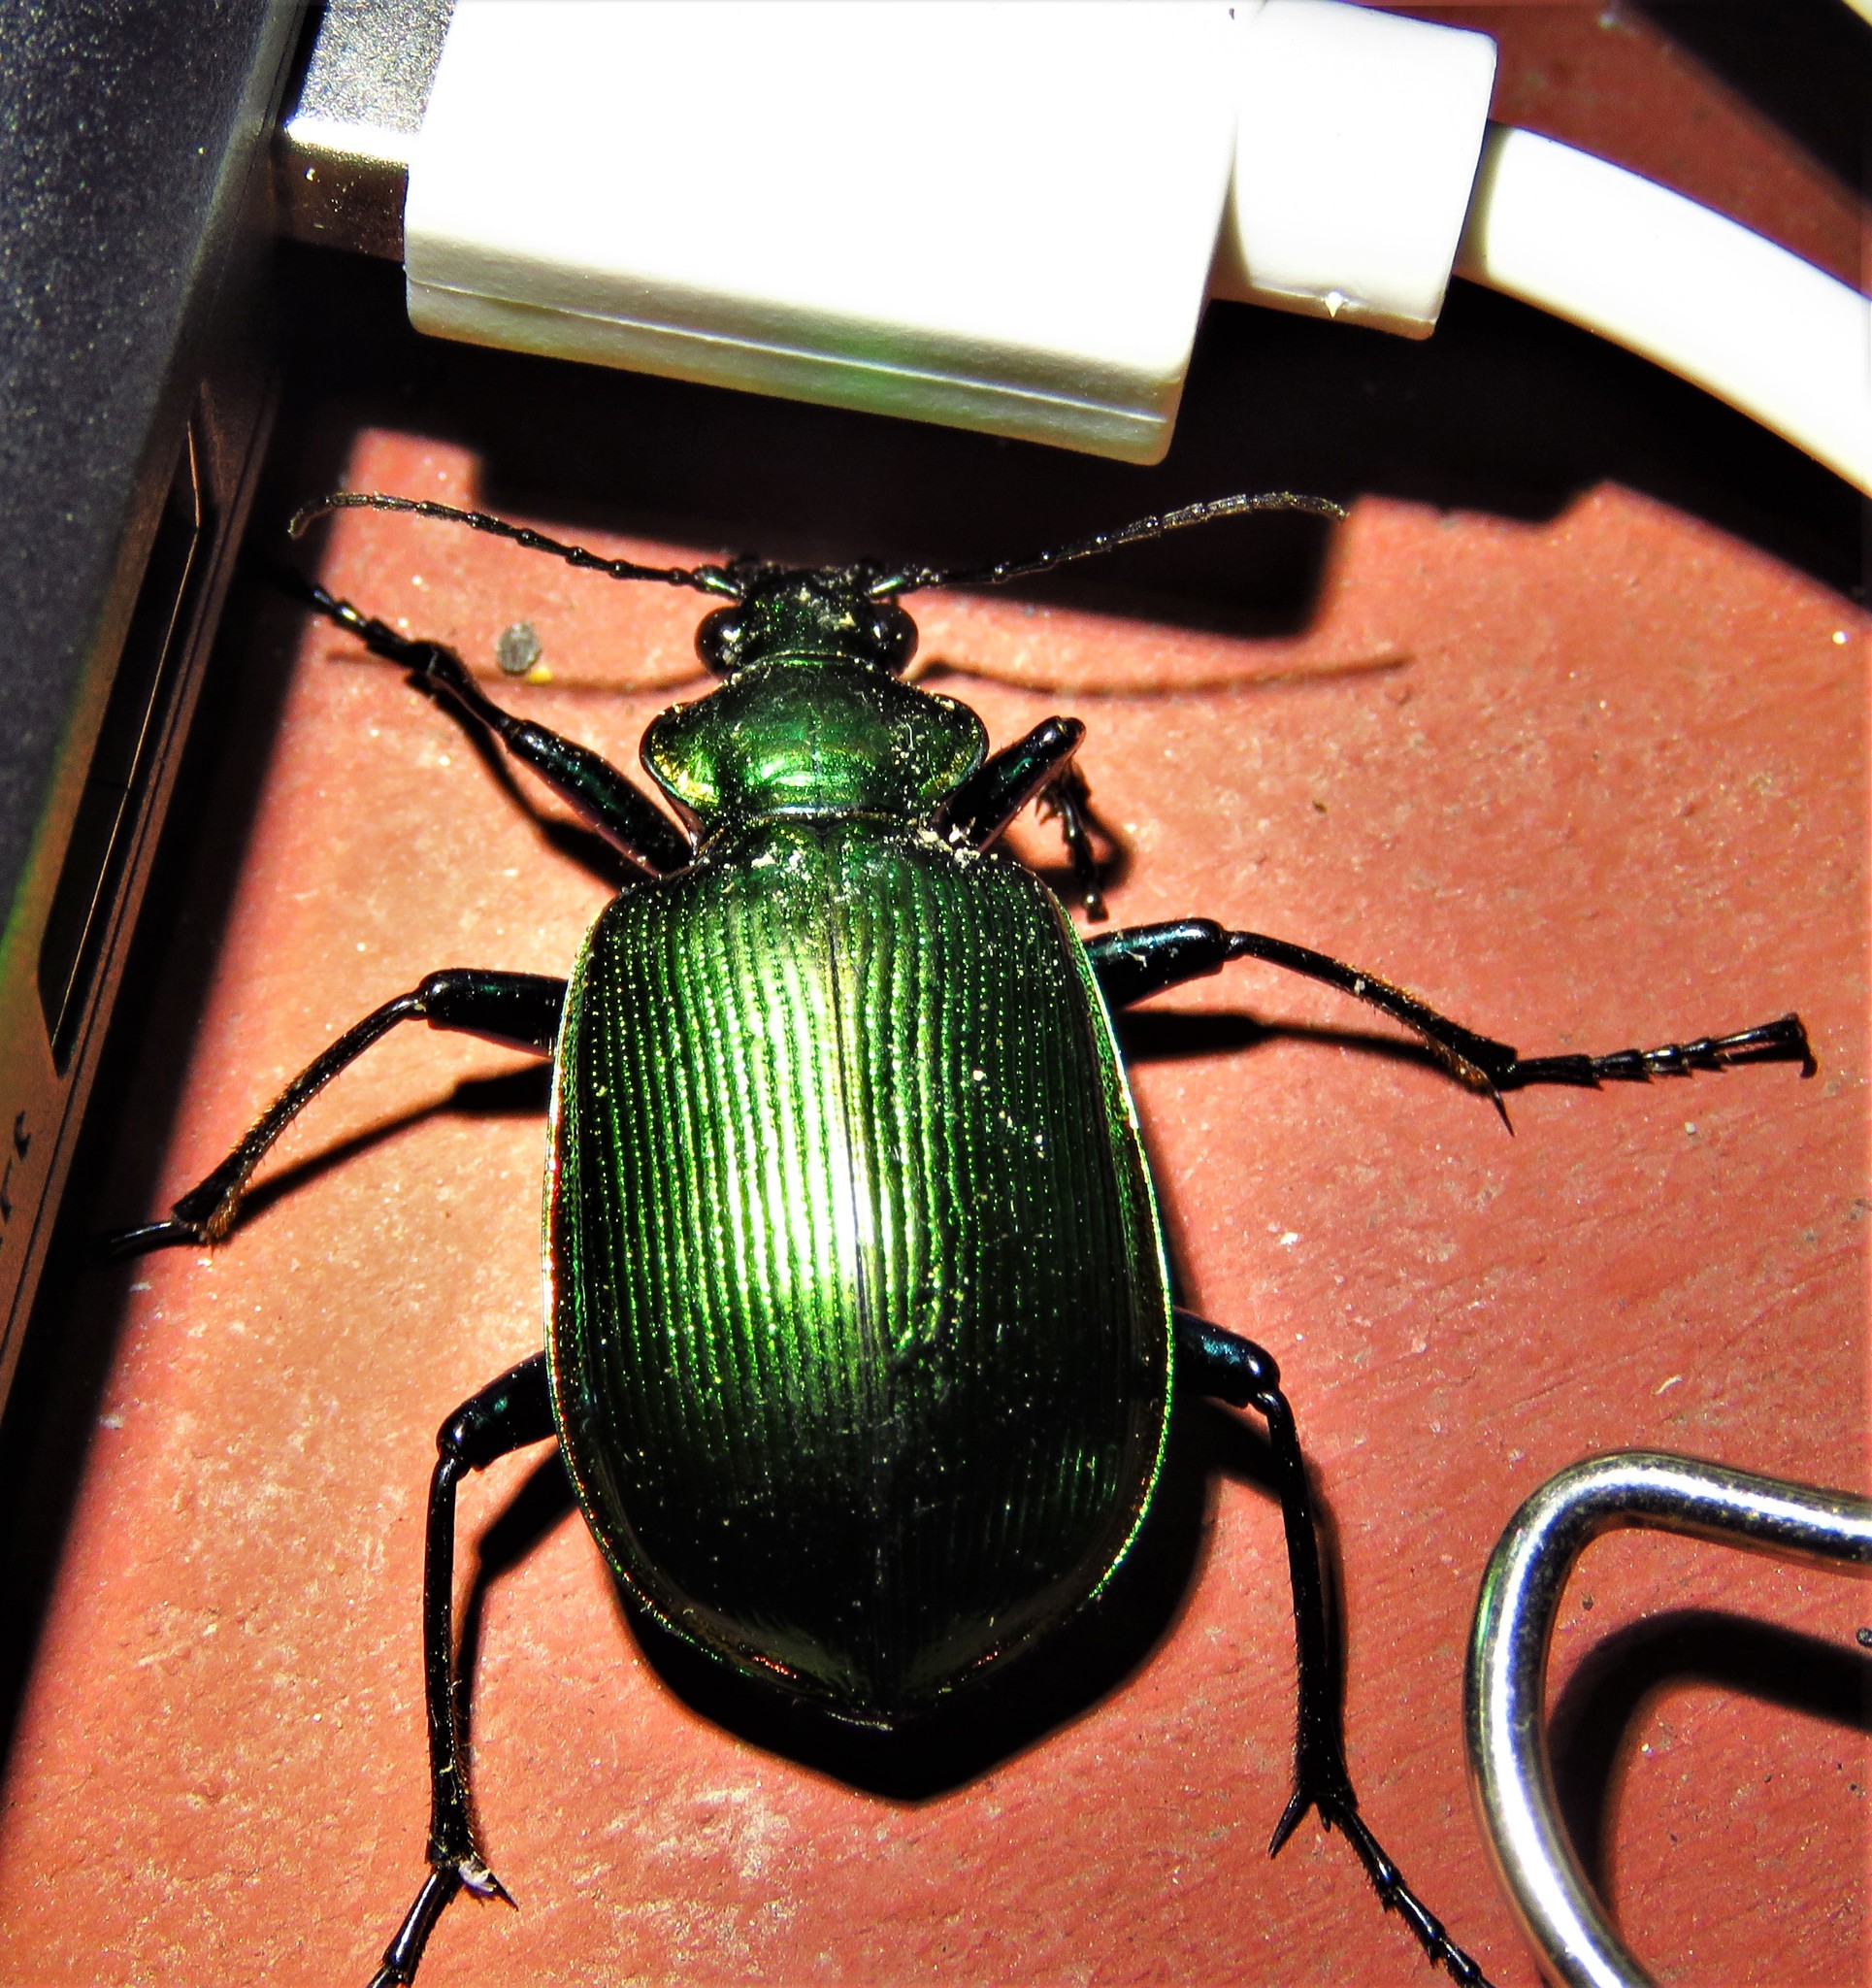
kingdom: Animalia
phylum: Arthropoda
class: Insecta
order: Coleoptera
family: Carabidae
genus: Calosoma
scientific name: Calosoma aurocinctum
